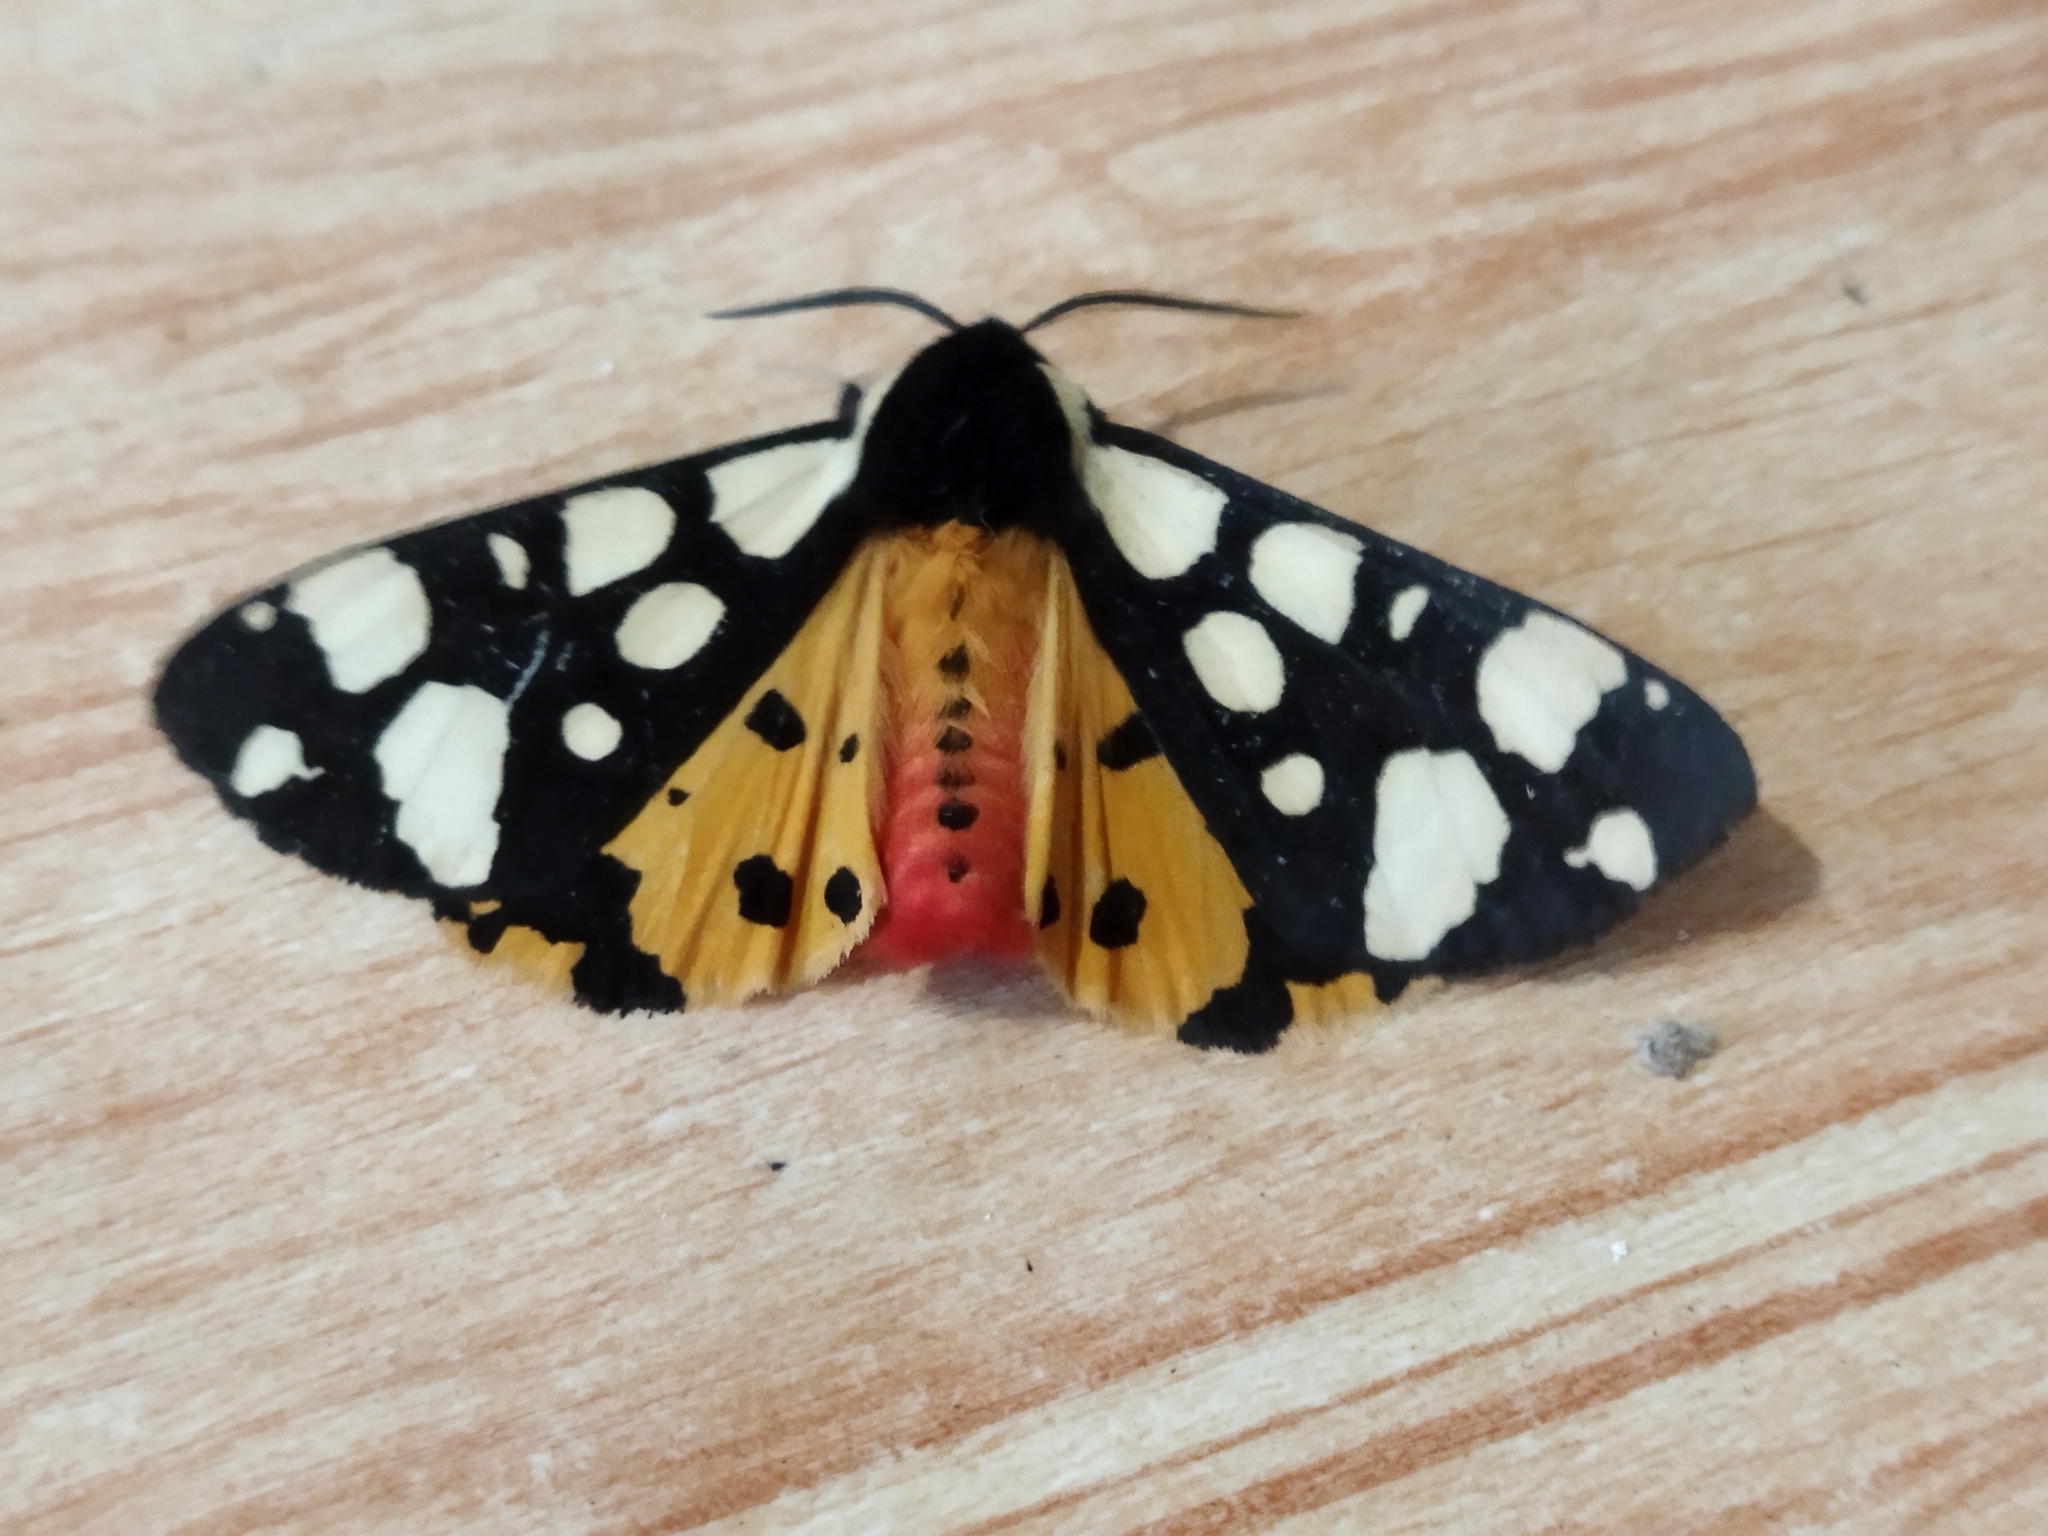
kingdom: Animalia
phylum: Arthropoda
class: Insecta
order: Lepidoptera
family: Erebidae
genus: Epicallia
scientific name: Epicallia villica
